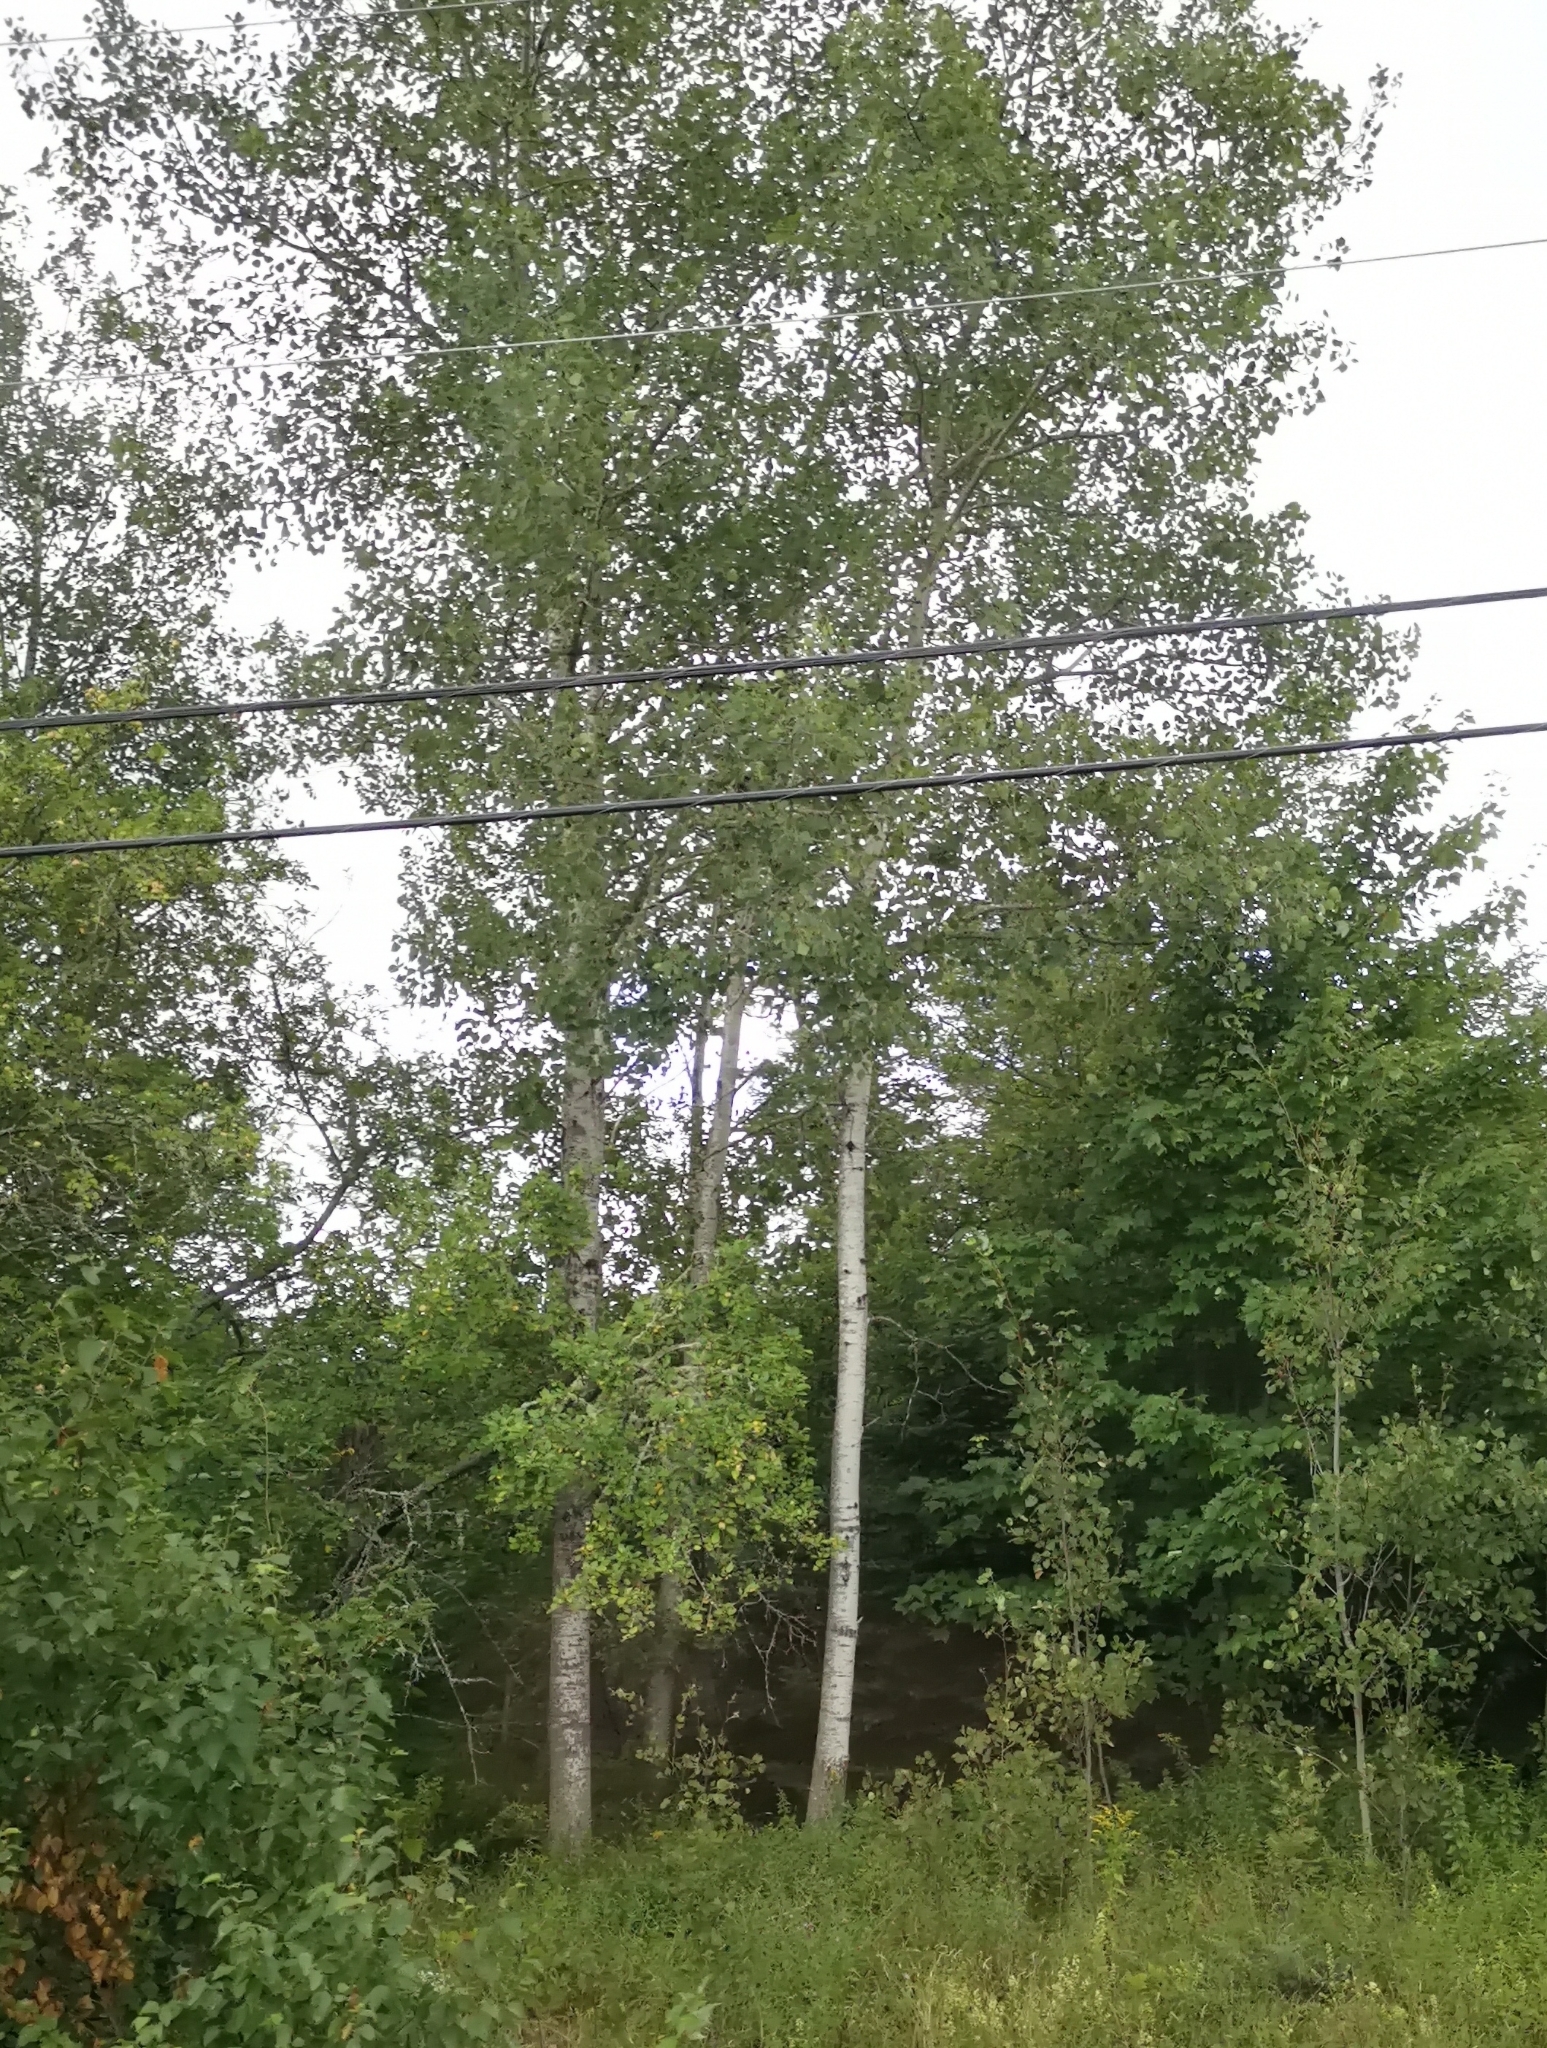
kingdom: Plantae
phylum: Tracheophyta
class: Magnoliopsida
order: Malpighiales
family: Salicaceae
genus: Populus
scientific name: Populus tremuloides
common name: Quaking aspen
